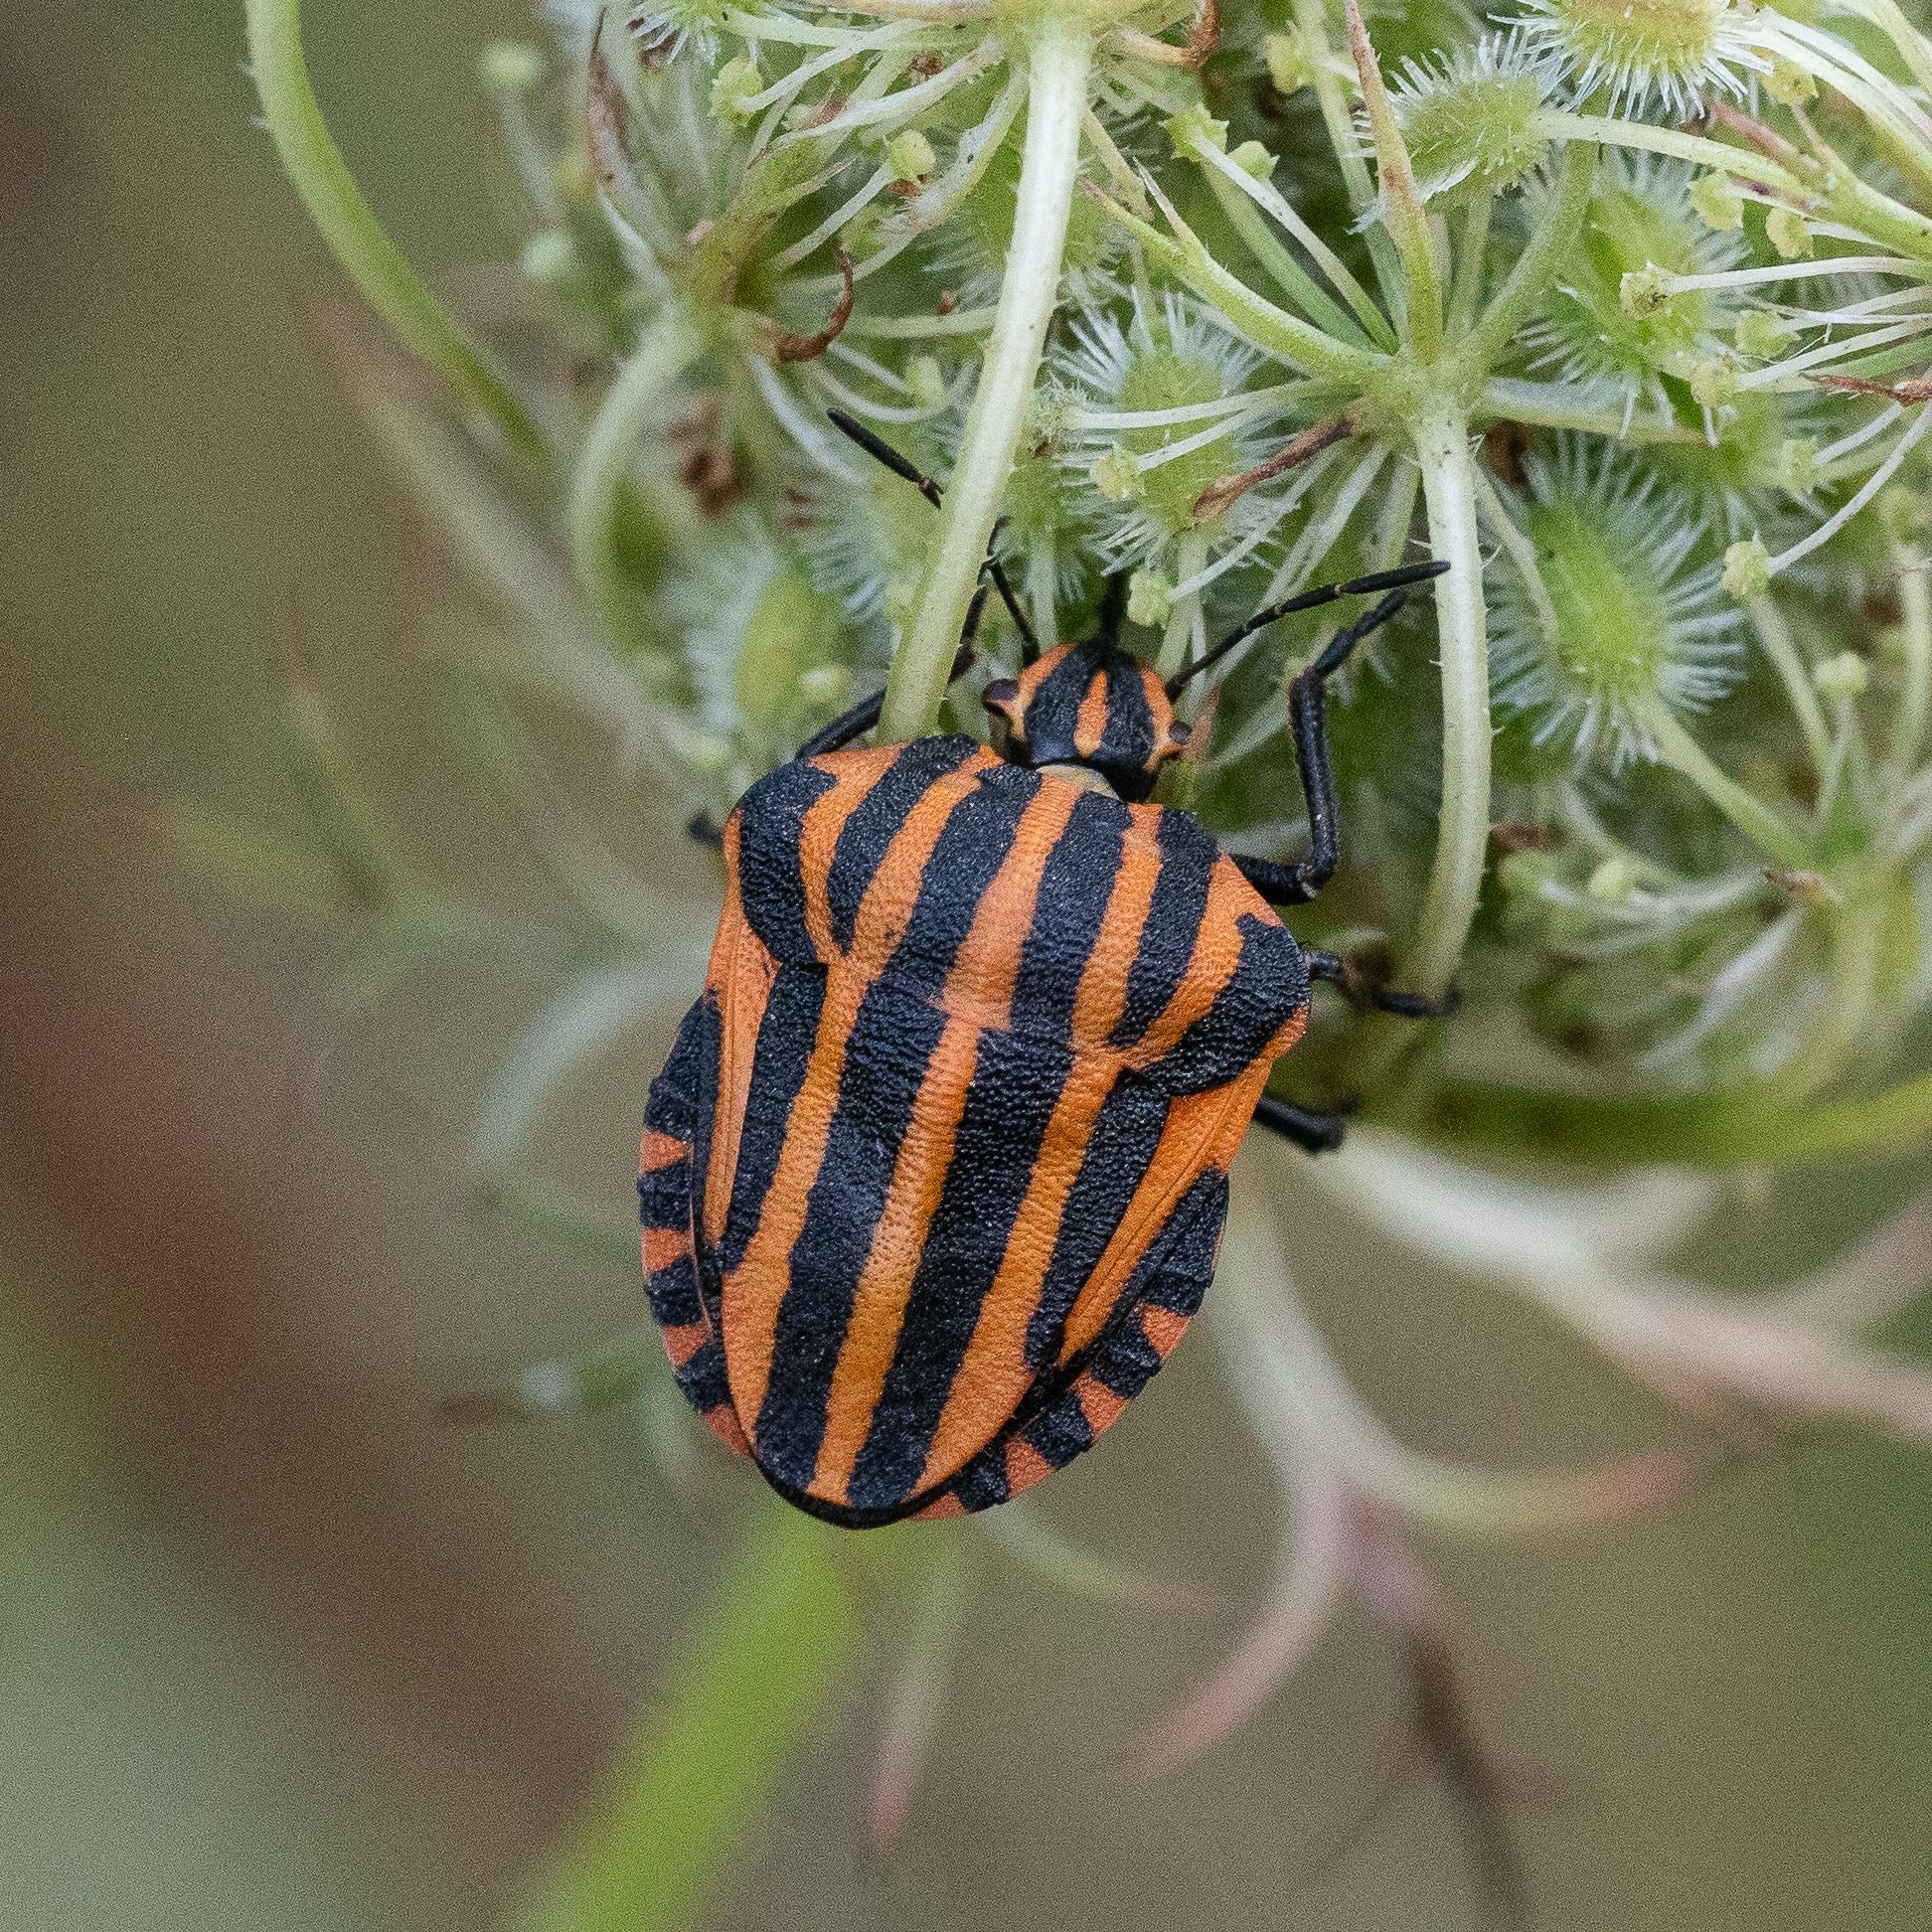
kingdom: Animalia
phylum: Arthropoda
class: Insecta
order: Hemiptera
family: Pentatomidae
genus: Graphosoma
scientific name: Graphosoma italicum
